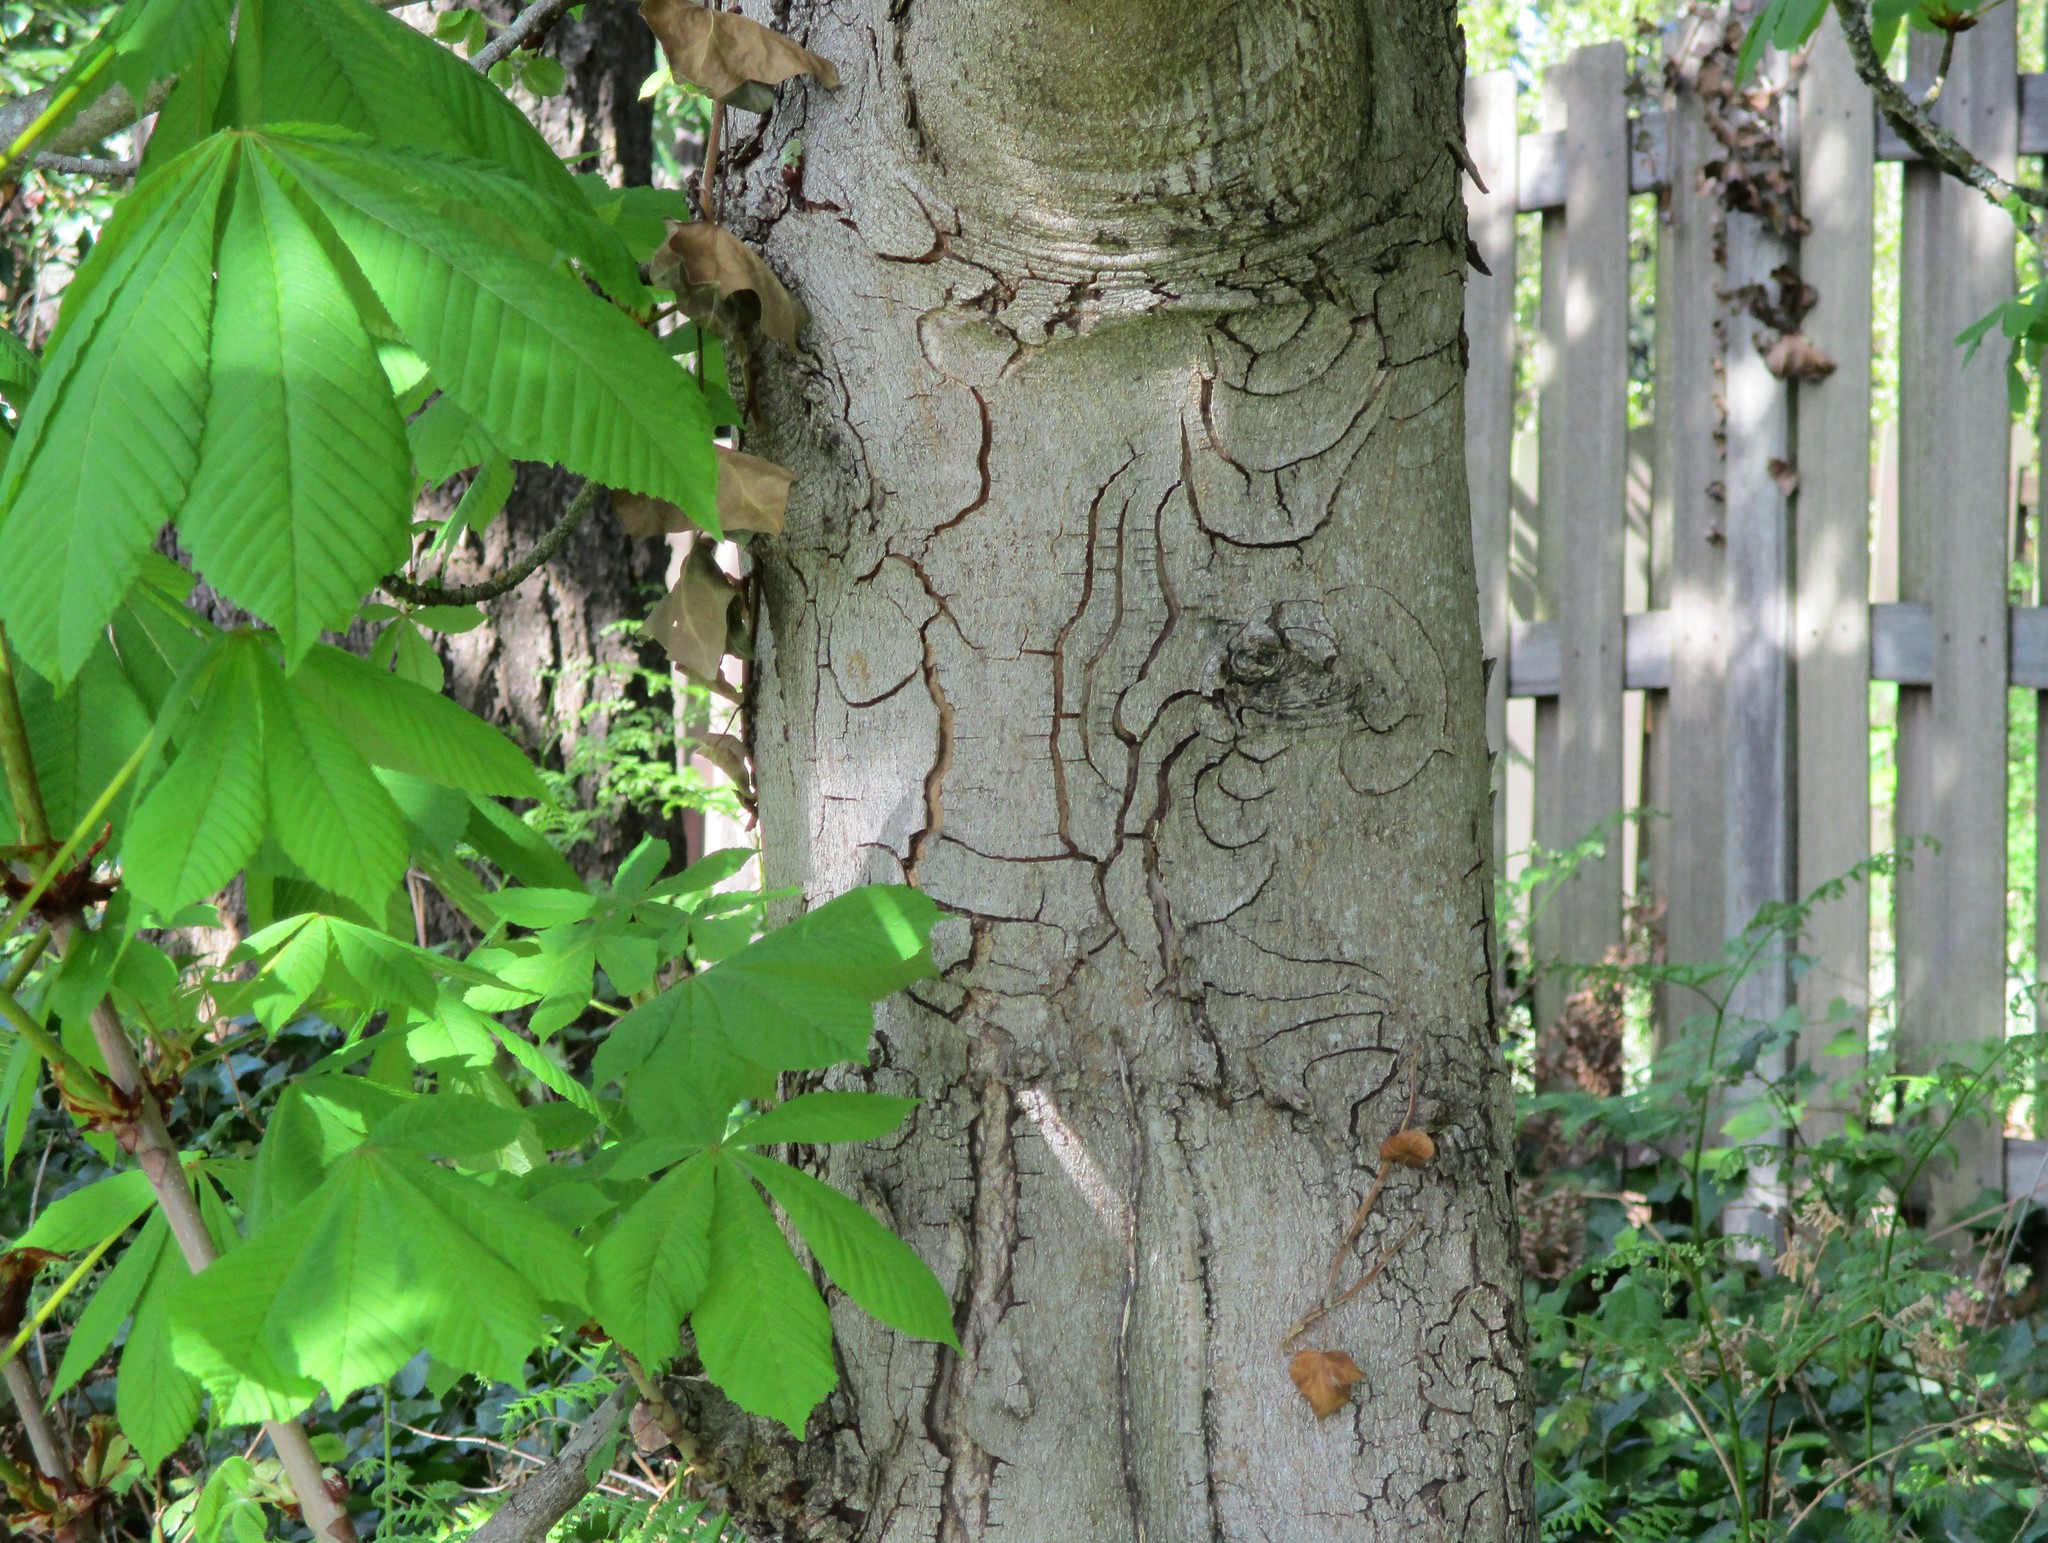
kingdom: Plantae
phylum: Tracheophyta
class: Magnoliopsida
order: Sapindales
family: Sapindaceae
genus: Aesculus
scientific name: Aesculus hippocastanum
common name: Horse-chestnut
